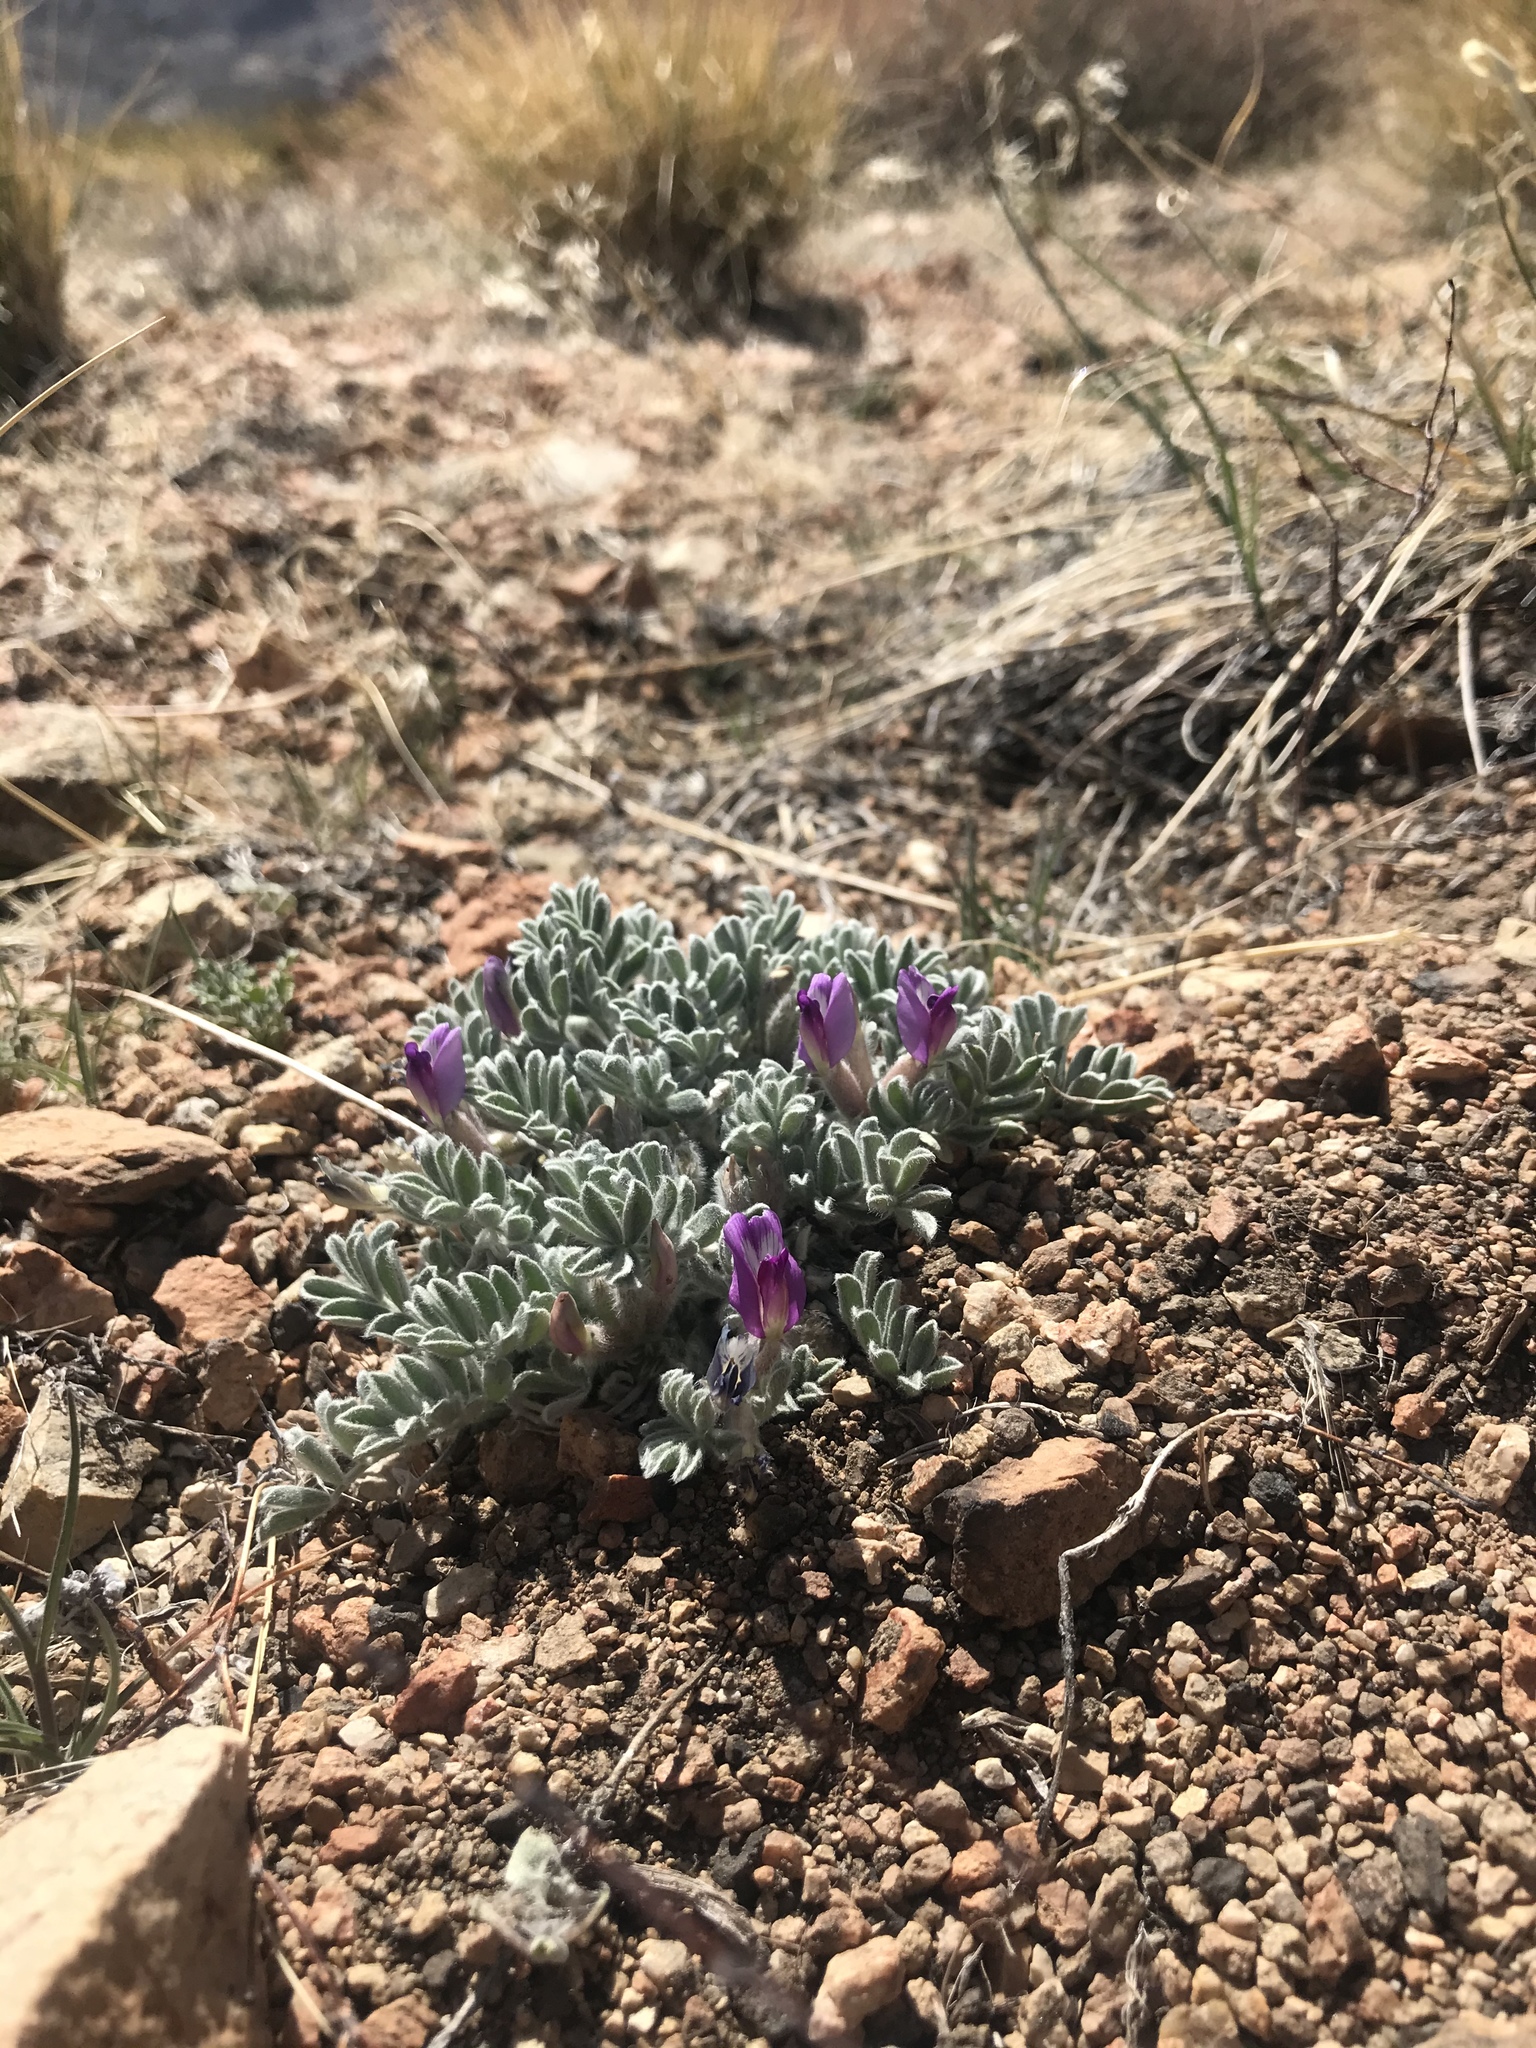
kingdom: Plantae
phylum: Tracheophyta
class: Magnoliopsida
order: Fabales
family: Fabaceae
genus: Astragalus
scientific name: Astragalus purshii
